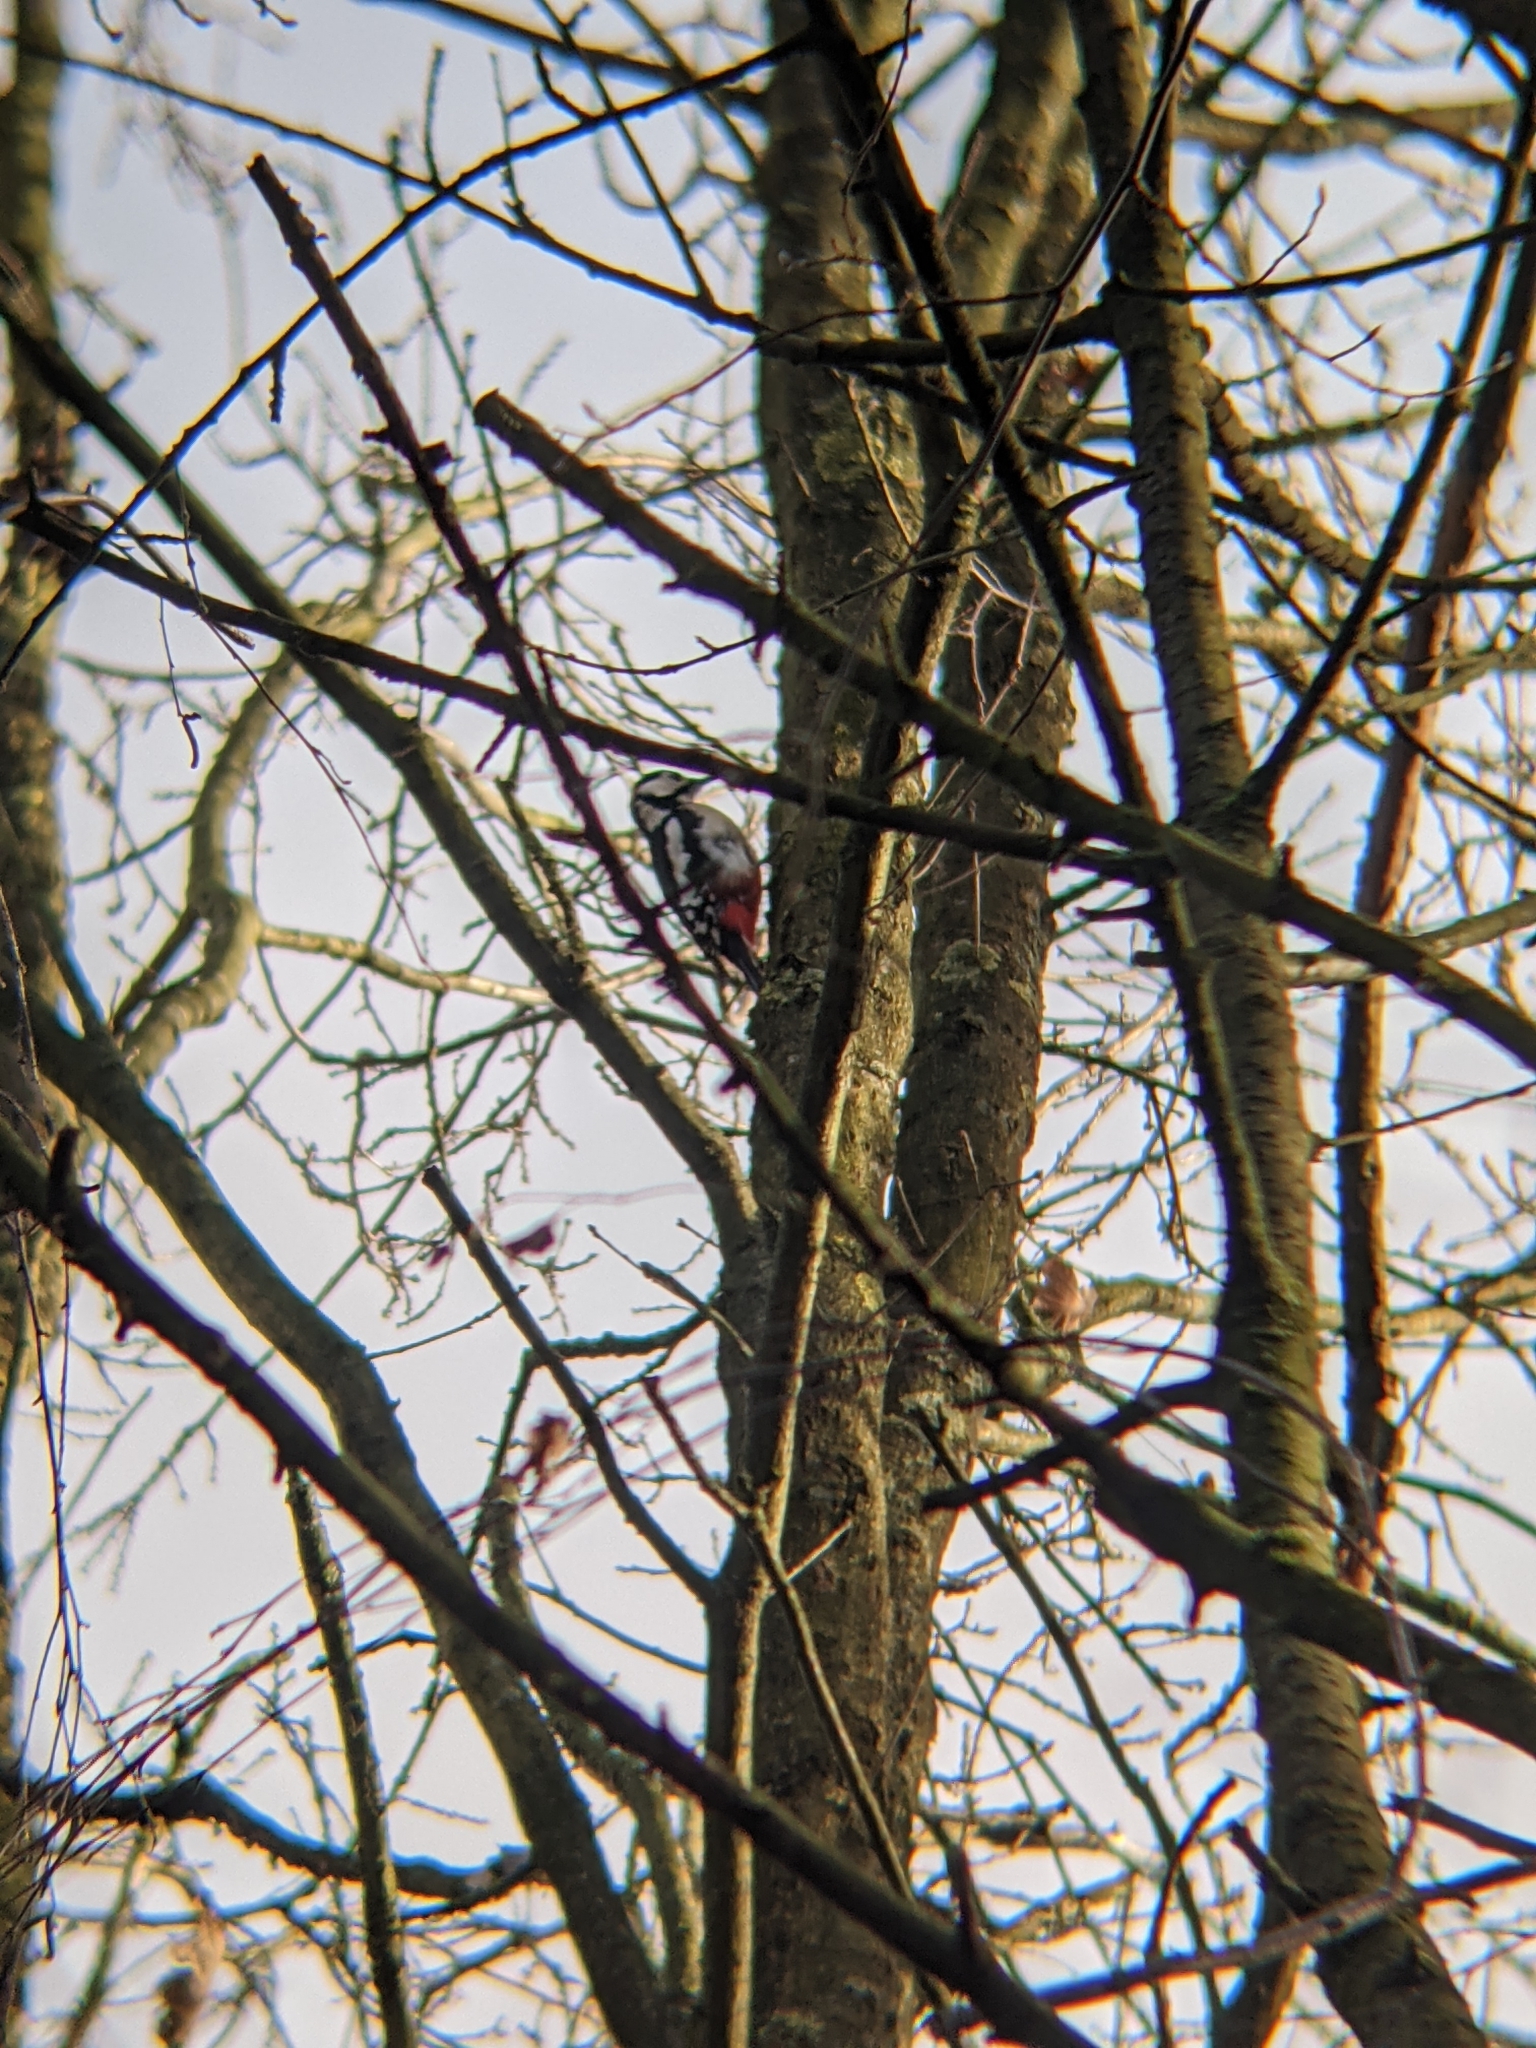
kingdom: Animalia
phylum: Chordata
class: Aves
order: Piciformes
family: Picidae
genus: Dendrocopos
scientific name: Dendrocopos major
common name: Great spotted woodpecker
